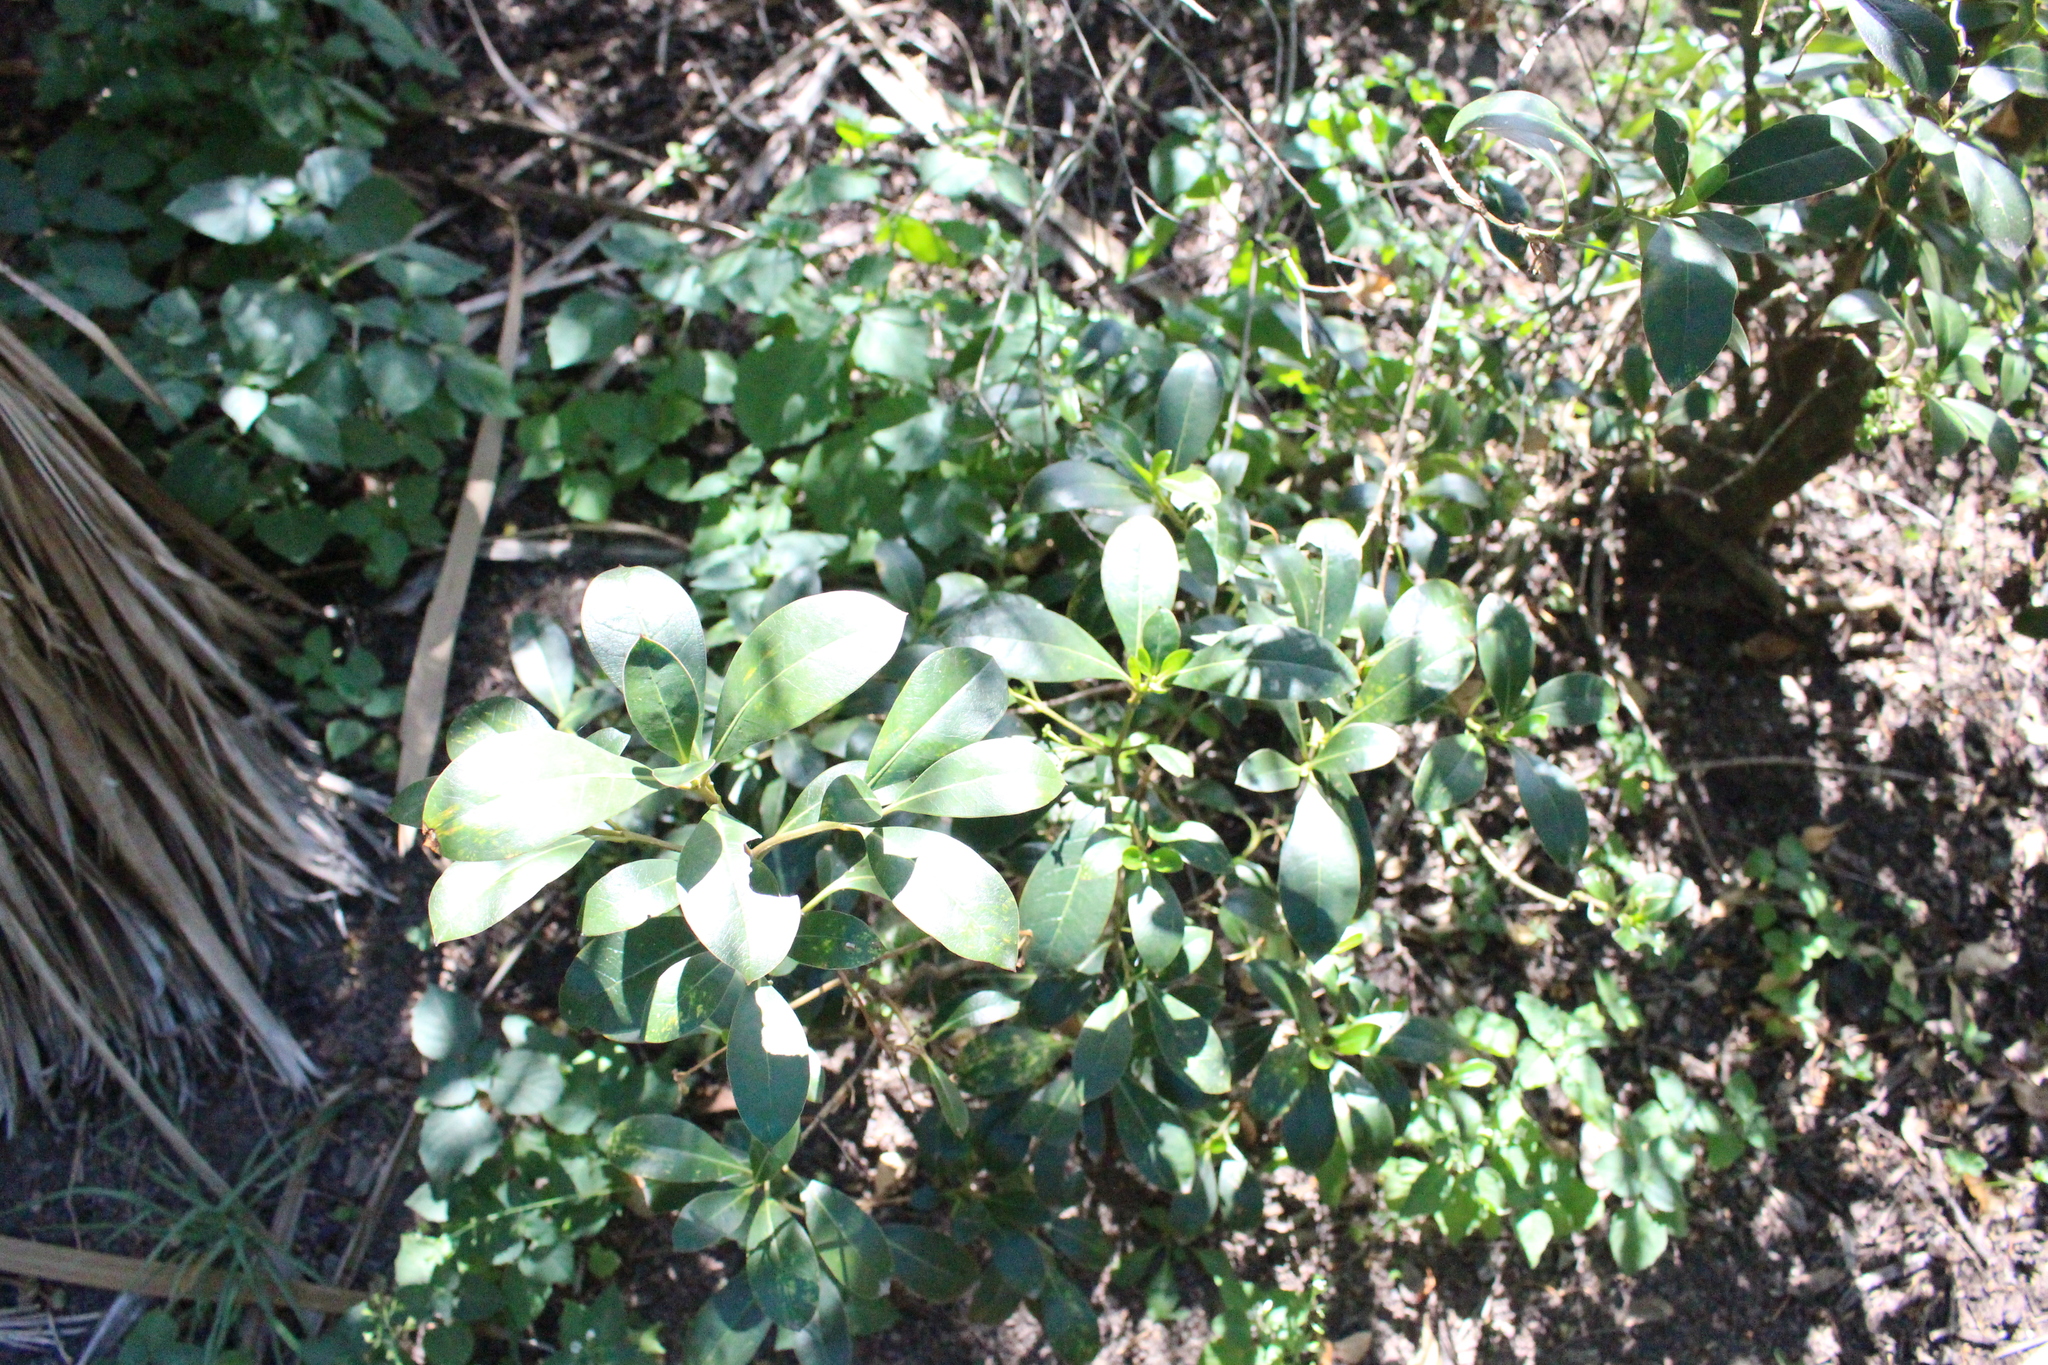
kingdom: Plantae
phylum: Tracheophyta
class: Magnoliopsida
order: Gentianales
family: Rubiaceae
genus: Coprosma
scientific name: Coprosma lucida
